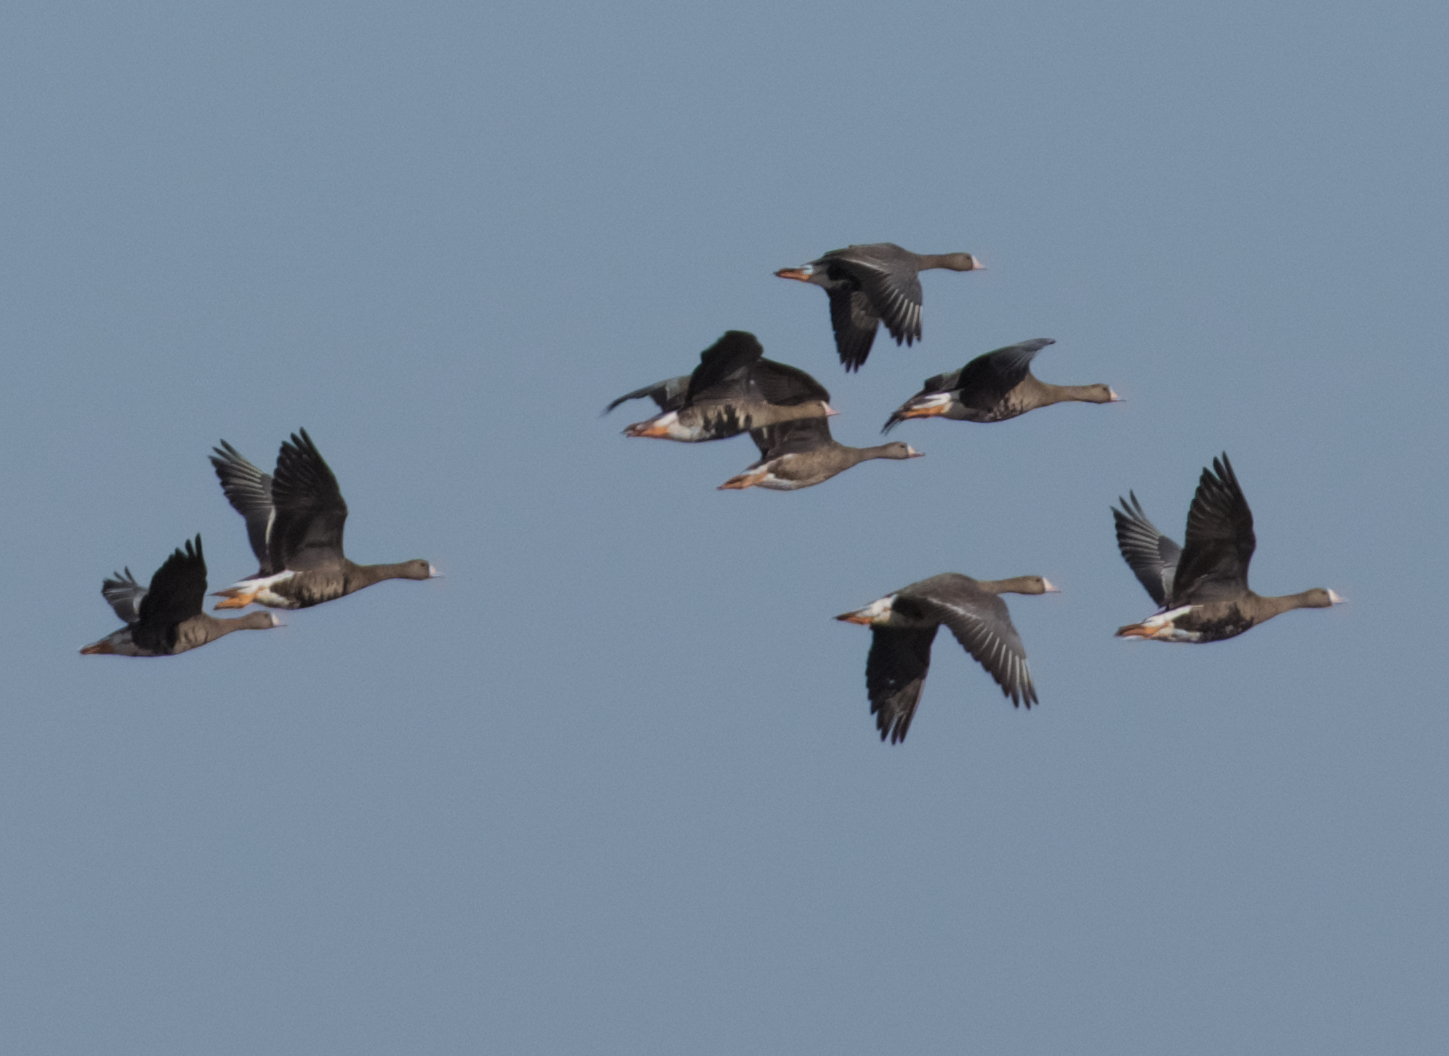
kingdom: Animalia
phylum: Chordata
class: Aves
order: Anseriformes
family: Anatidae
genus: Anser
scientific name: Anser albifrons
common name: Greater white-fronted goose
